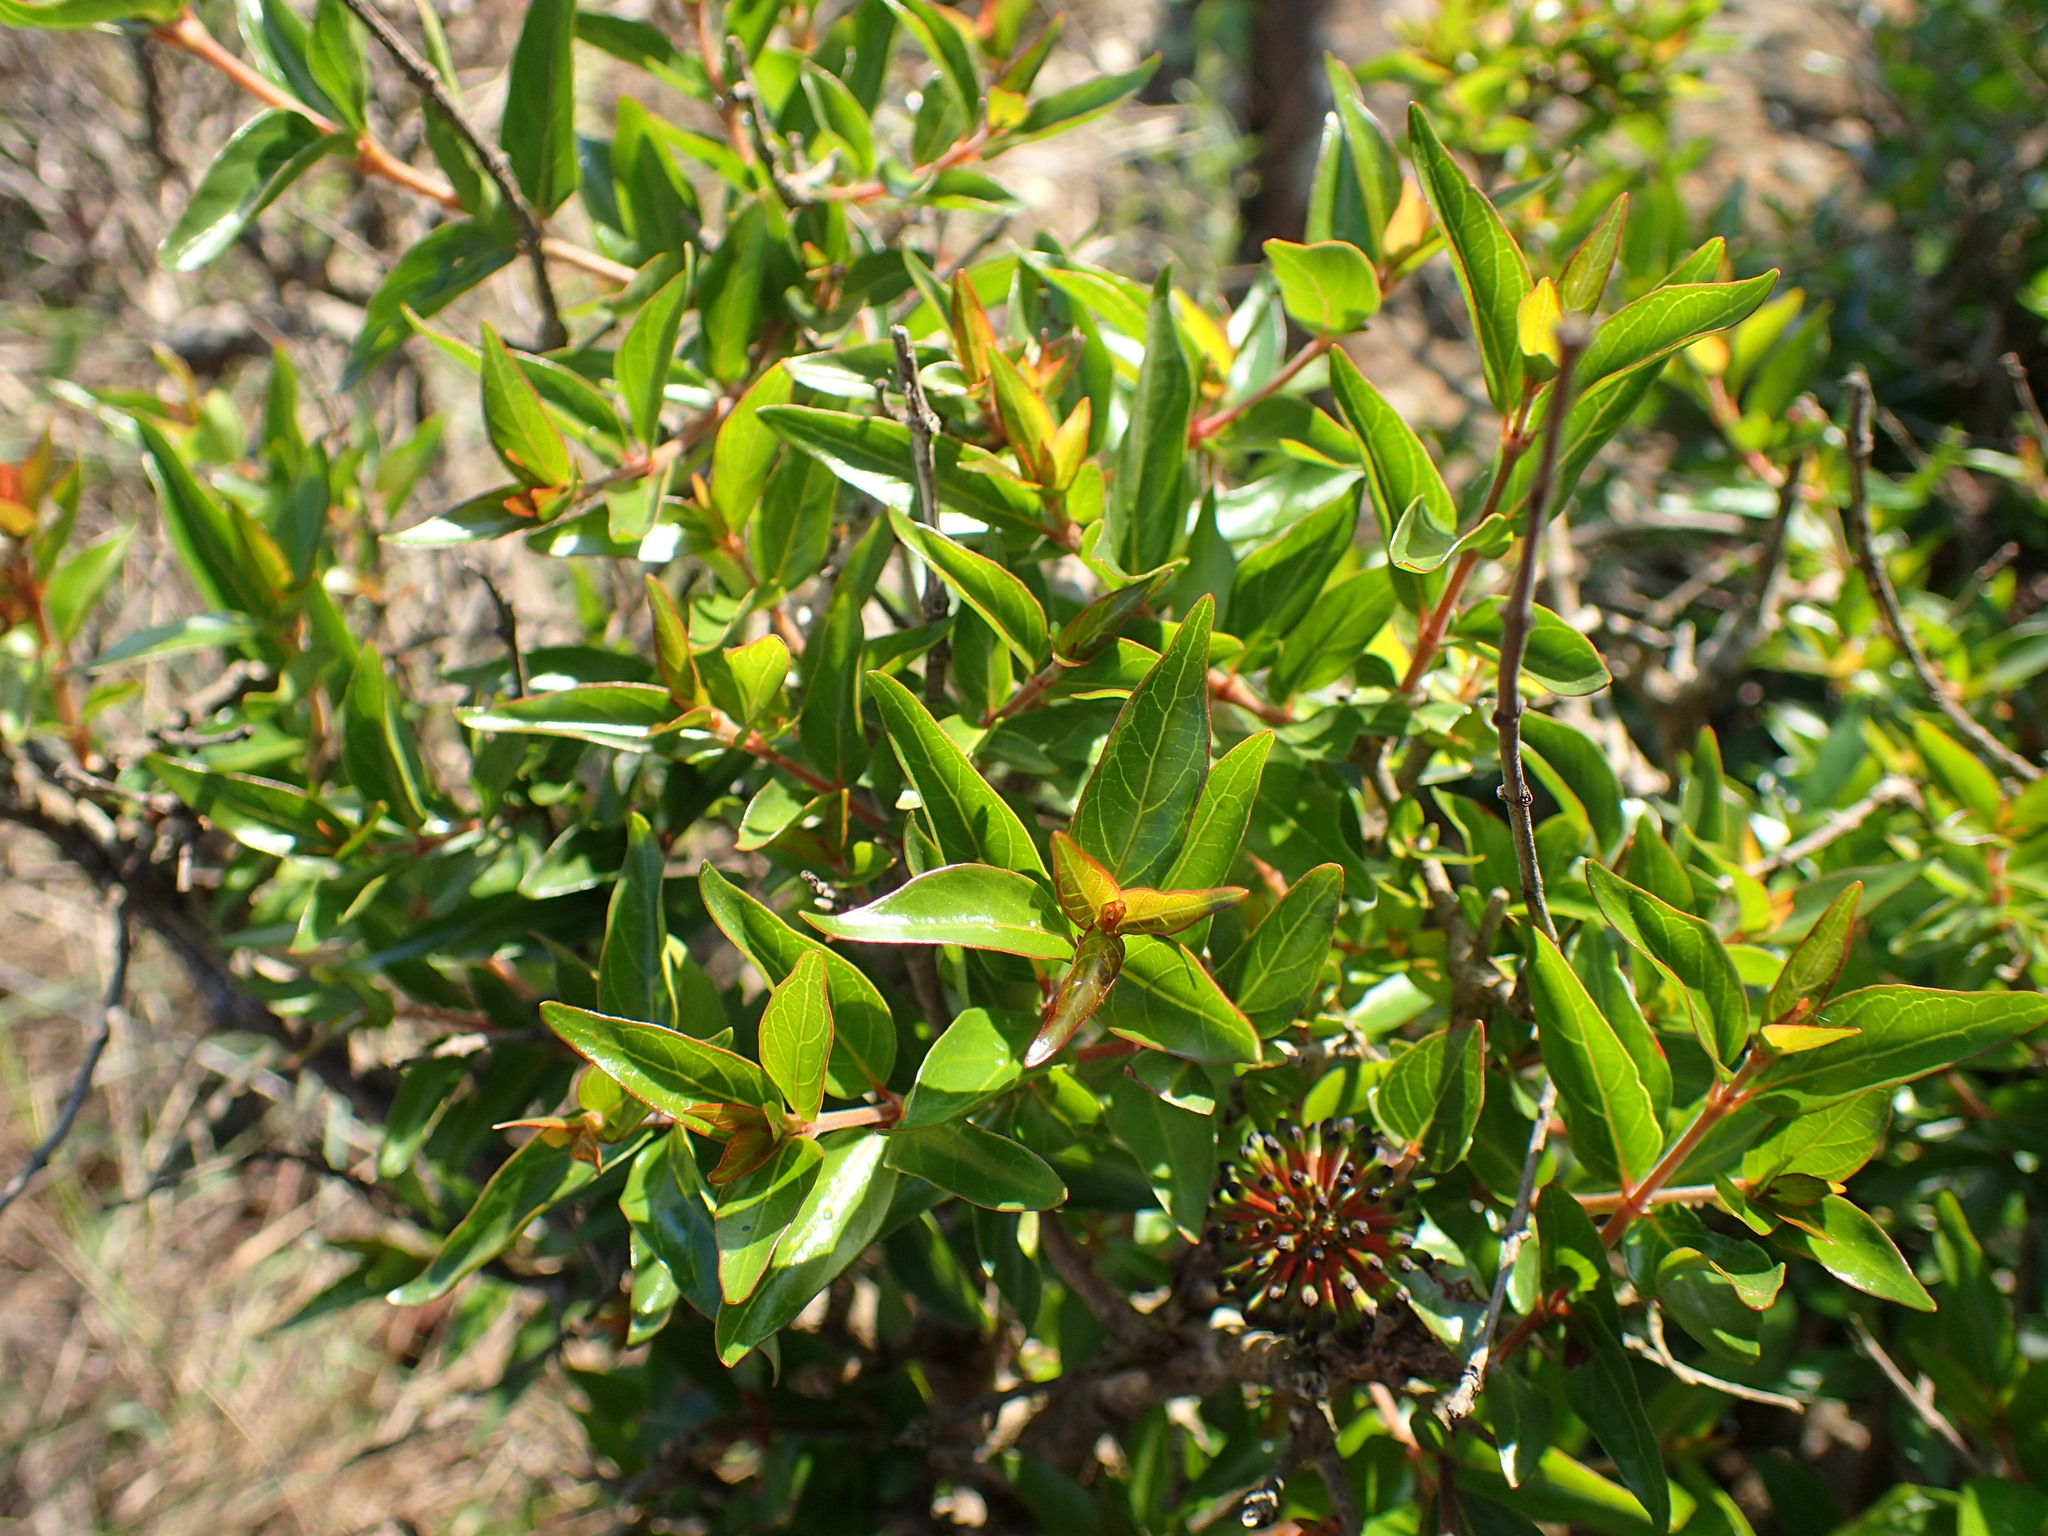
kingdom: Plantae
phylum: Tracheophyta
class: Magnoliopsida
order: Gentianales
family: Rubiaceae
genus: Cephalanthus
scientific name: Cephalanthus natalensis
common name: Strawberry bush
